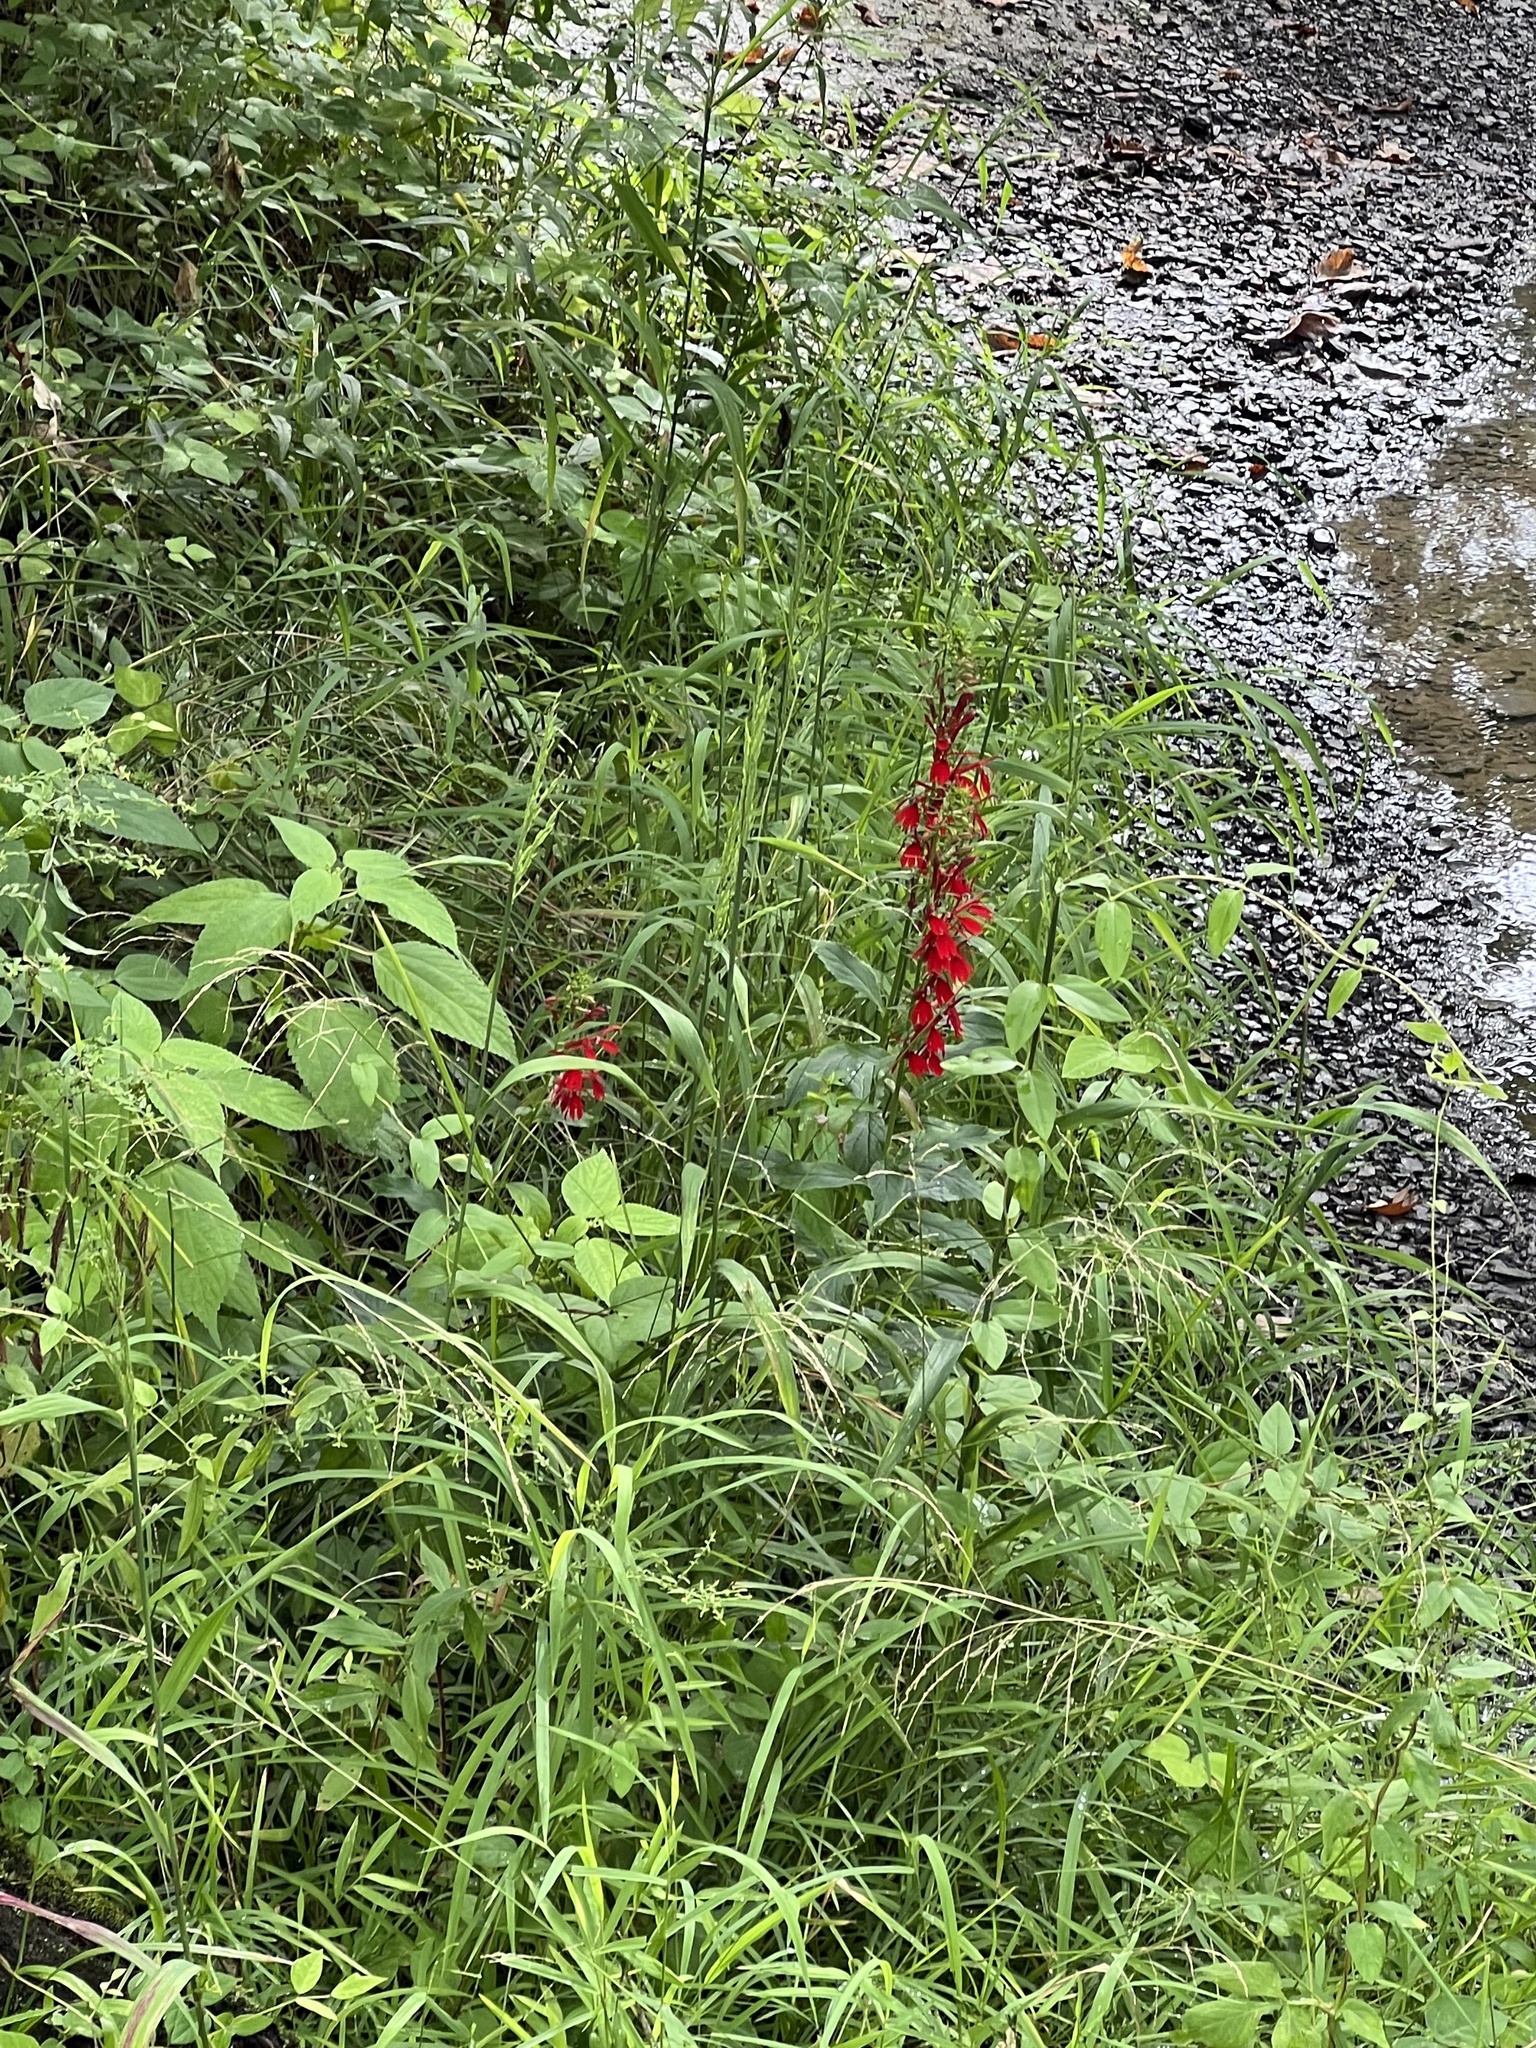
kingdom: Plantae
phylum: Tracheophyta
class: Magnoliopsida
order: Asterales
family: Campanulaceae
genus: Lobelia
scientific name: Lobelia cardinalis
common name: Cardinal flower
